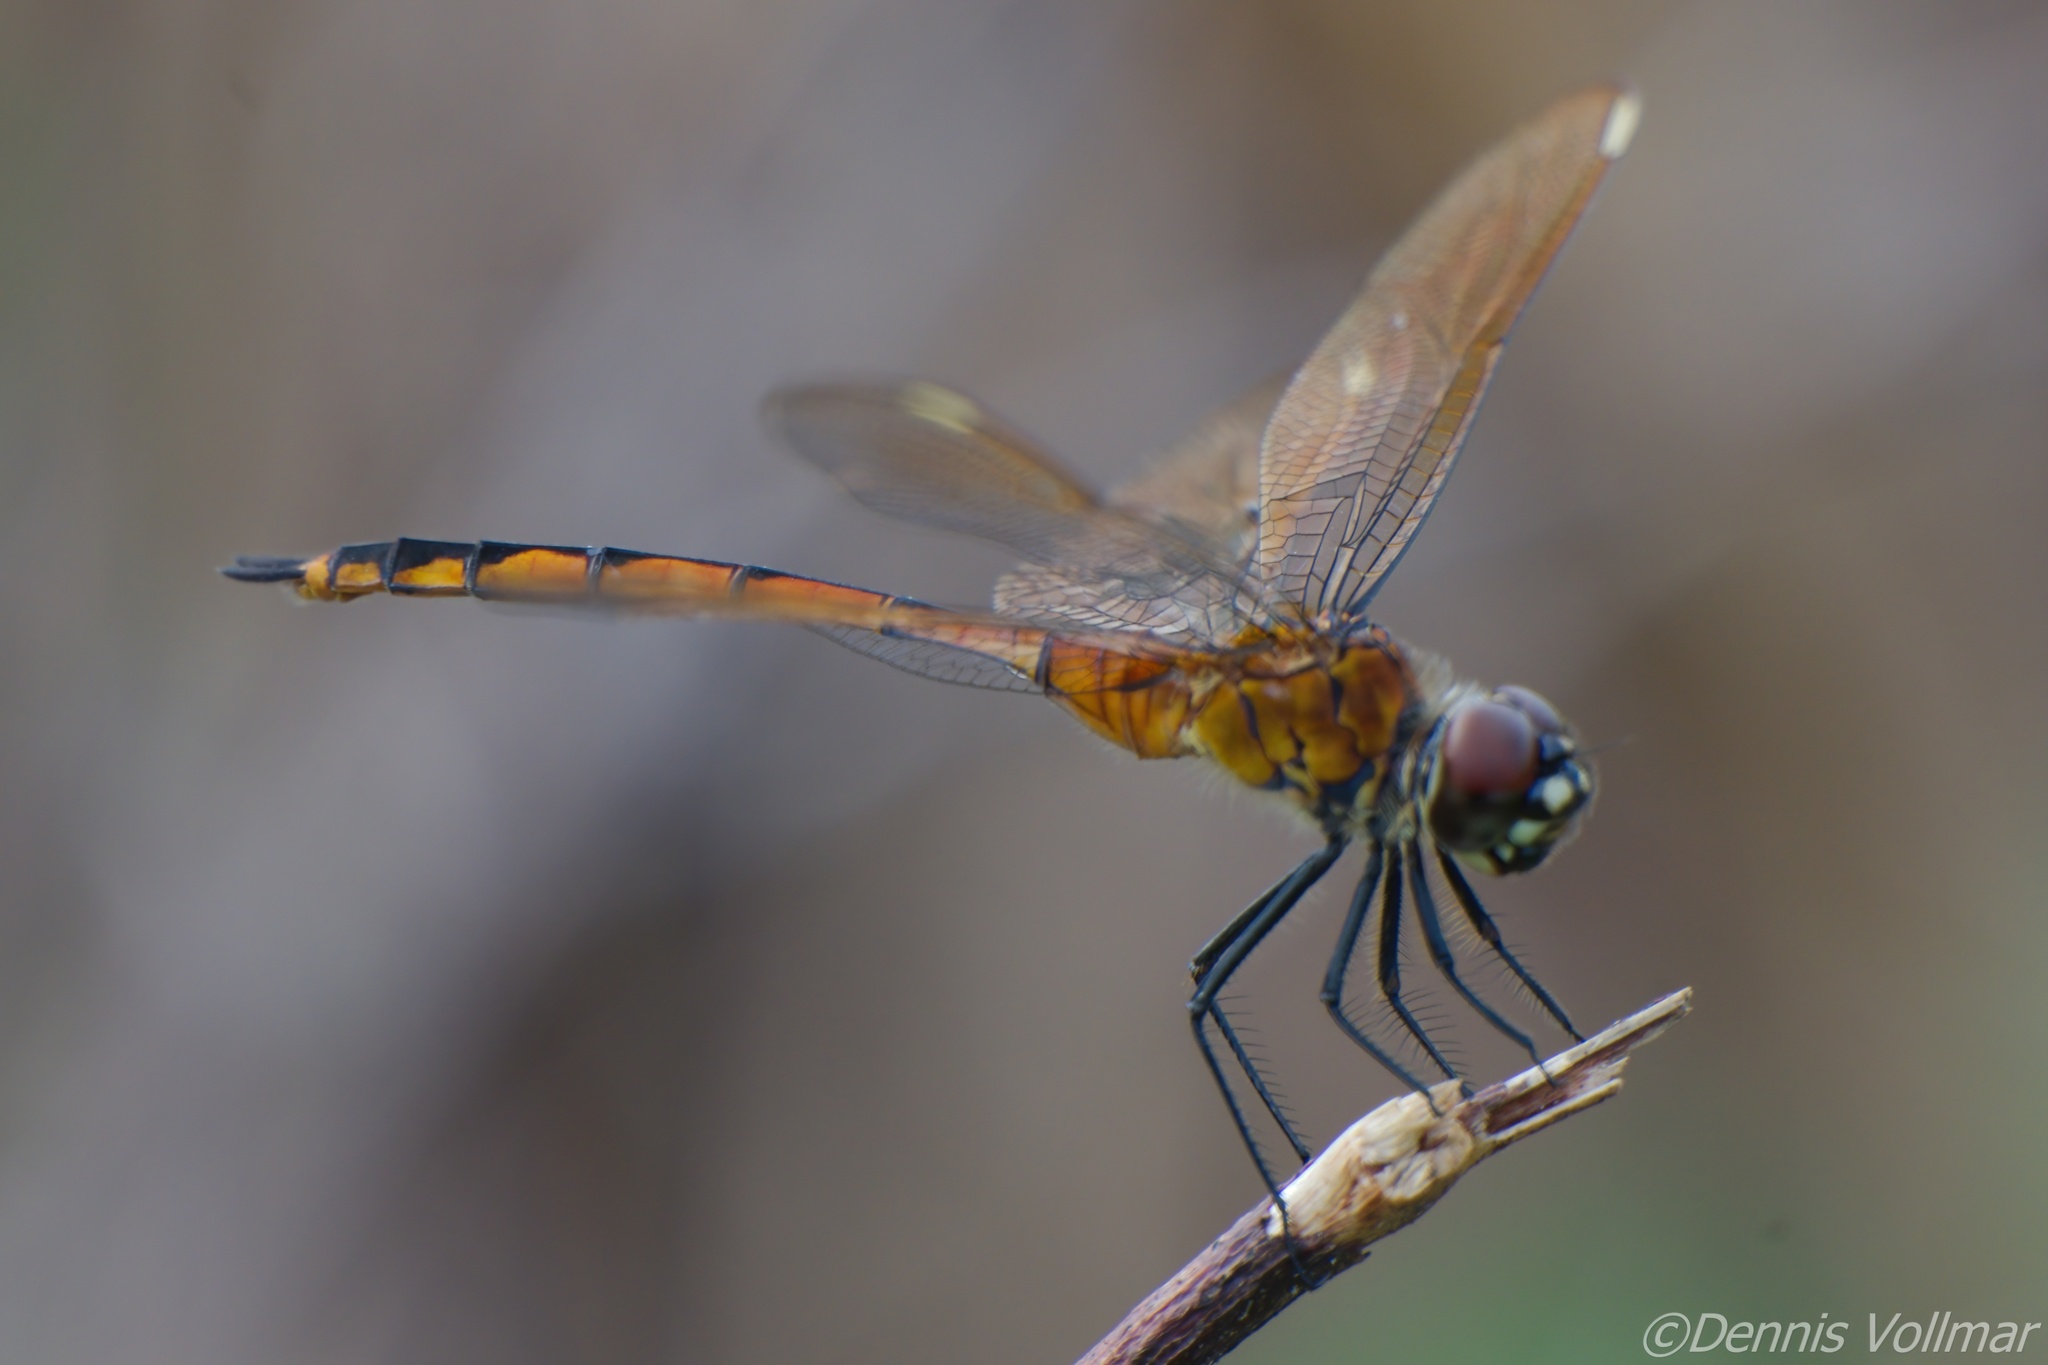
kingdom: Animalia
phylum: Arthropoda
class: Insecta
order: Odonata
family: Libellulidae
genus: Brachymesia
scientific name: Brachymesia gravida
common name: Four-spotted pennant
